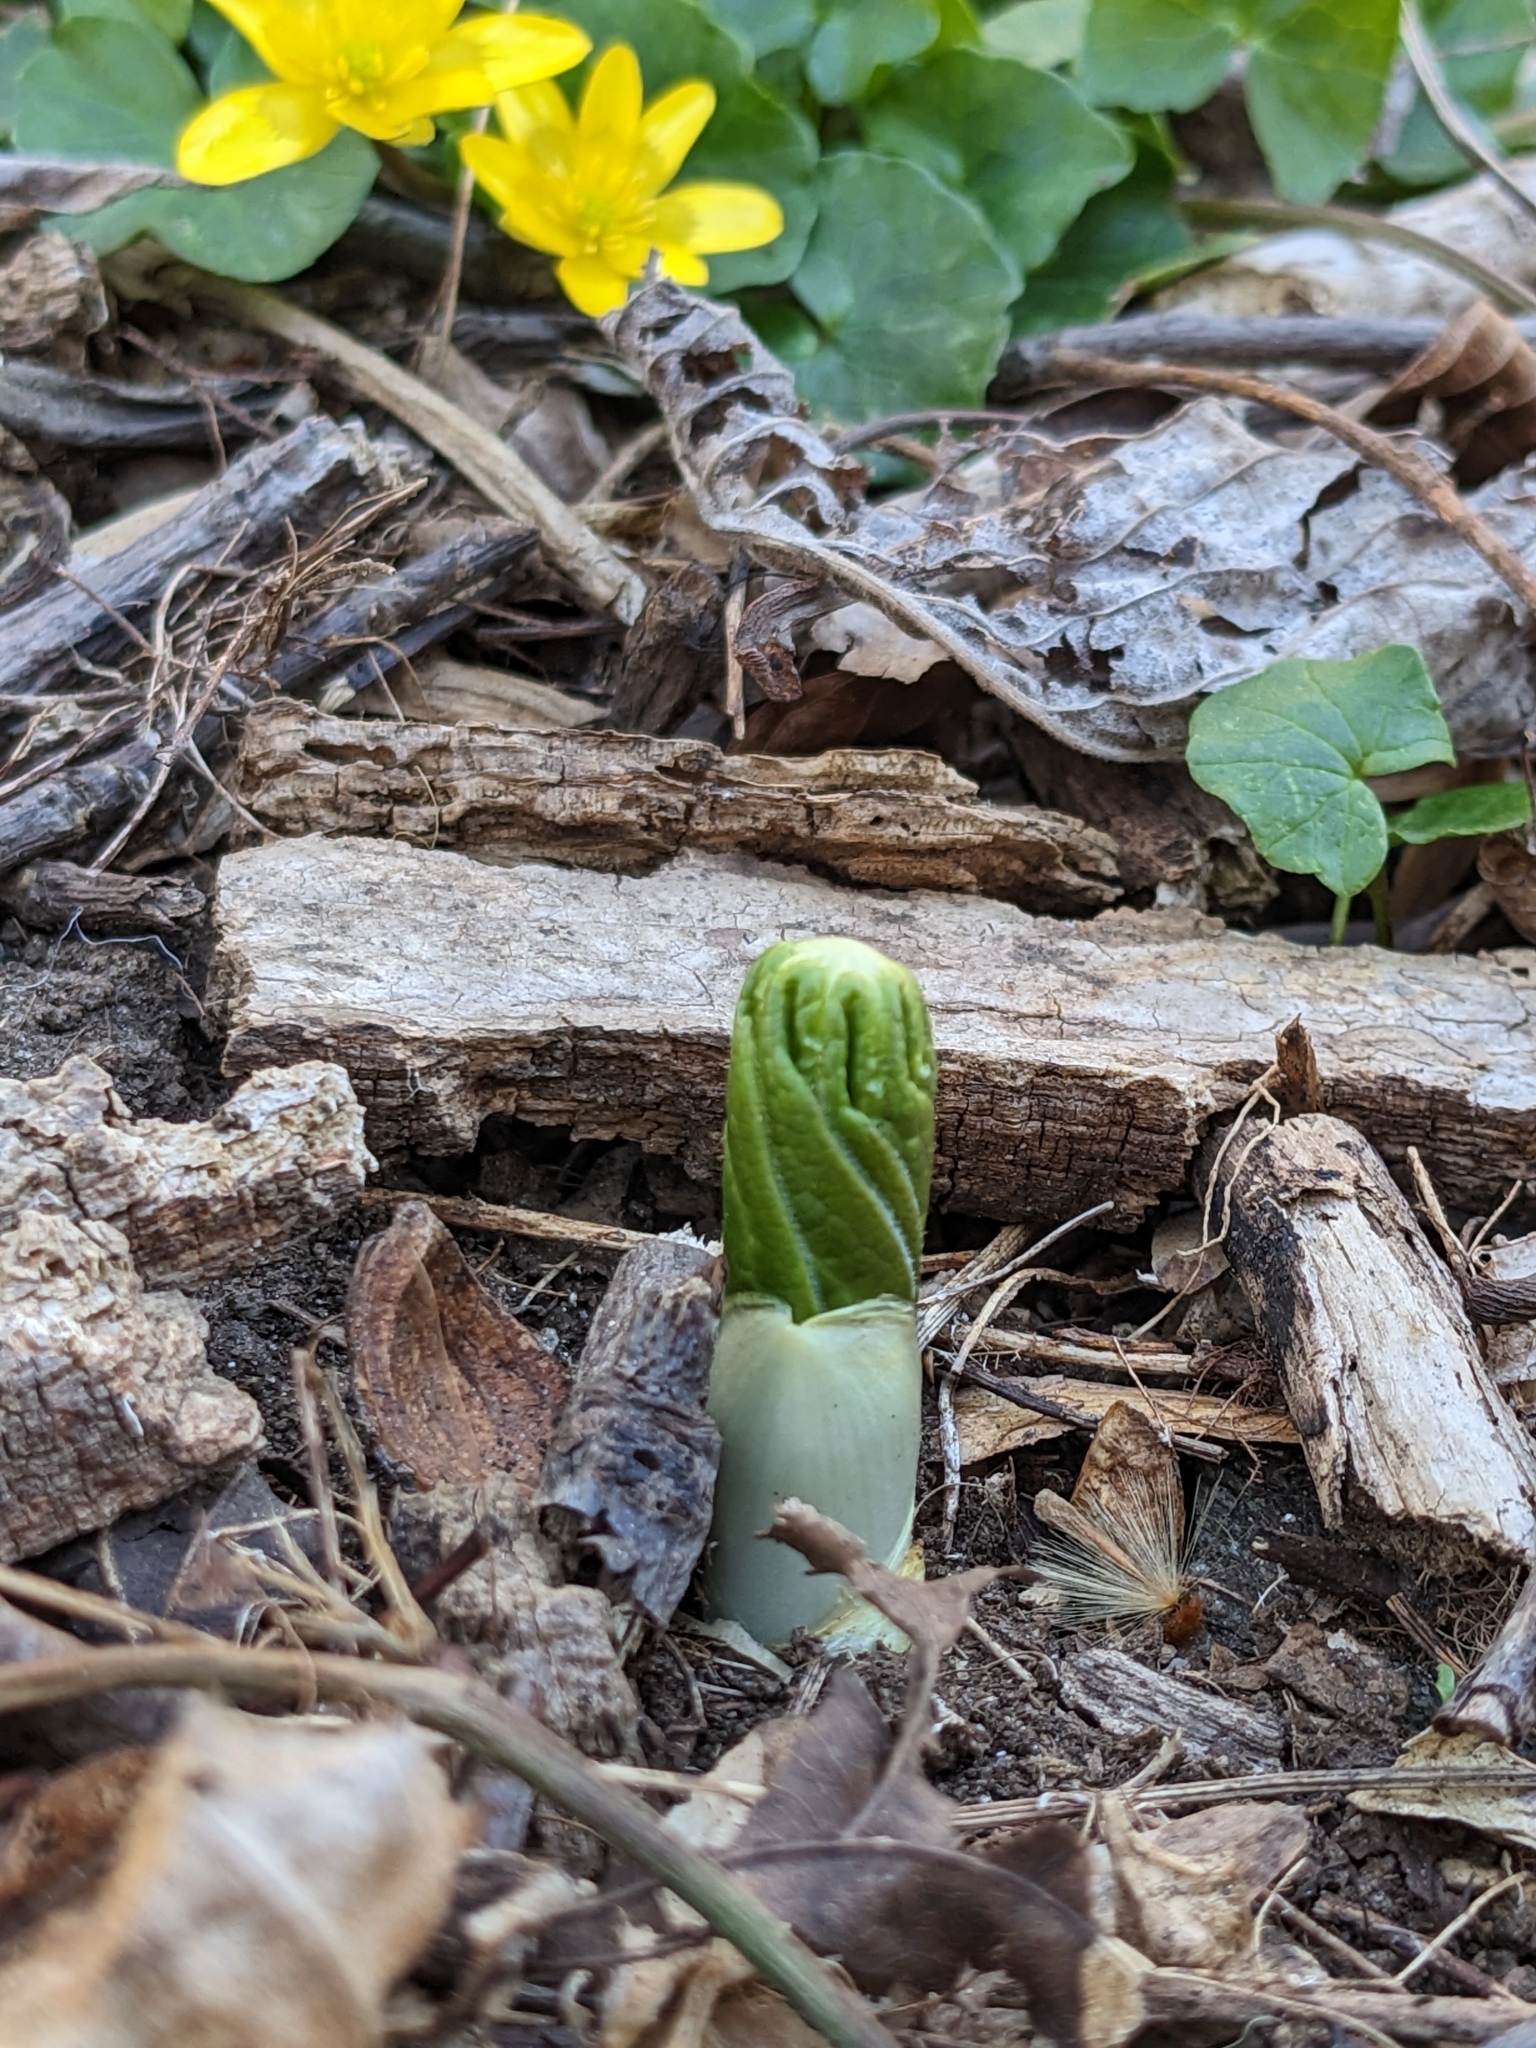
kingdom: Plantae
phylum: Tracheophyta
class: Magnoliopsida
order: Ranunculales
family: Berberidaceae
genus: Podophyllum
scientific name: Podophyllum peltatum
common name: Wild mandrake
